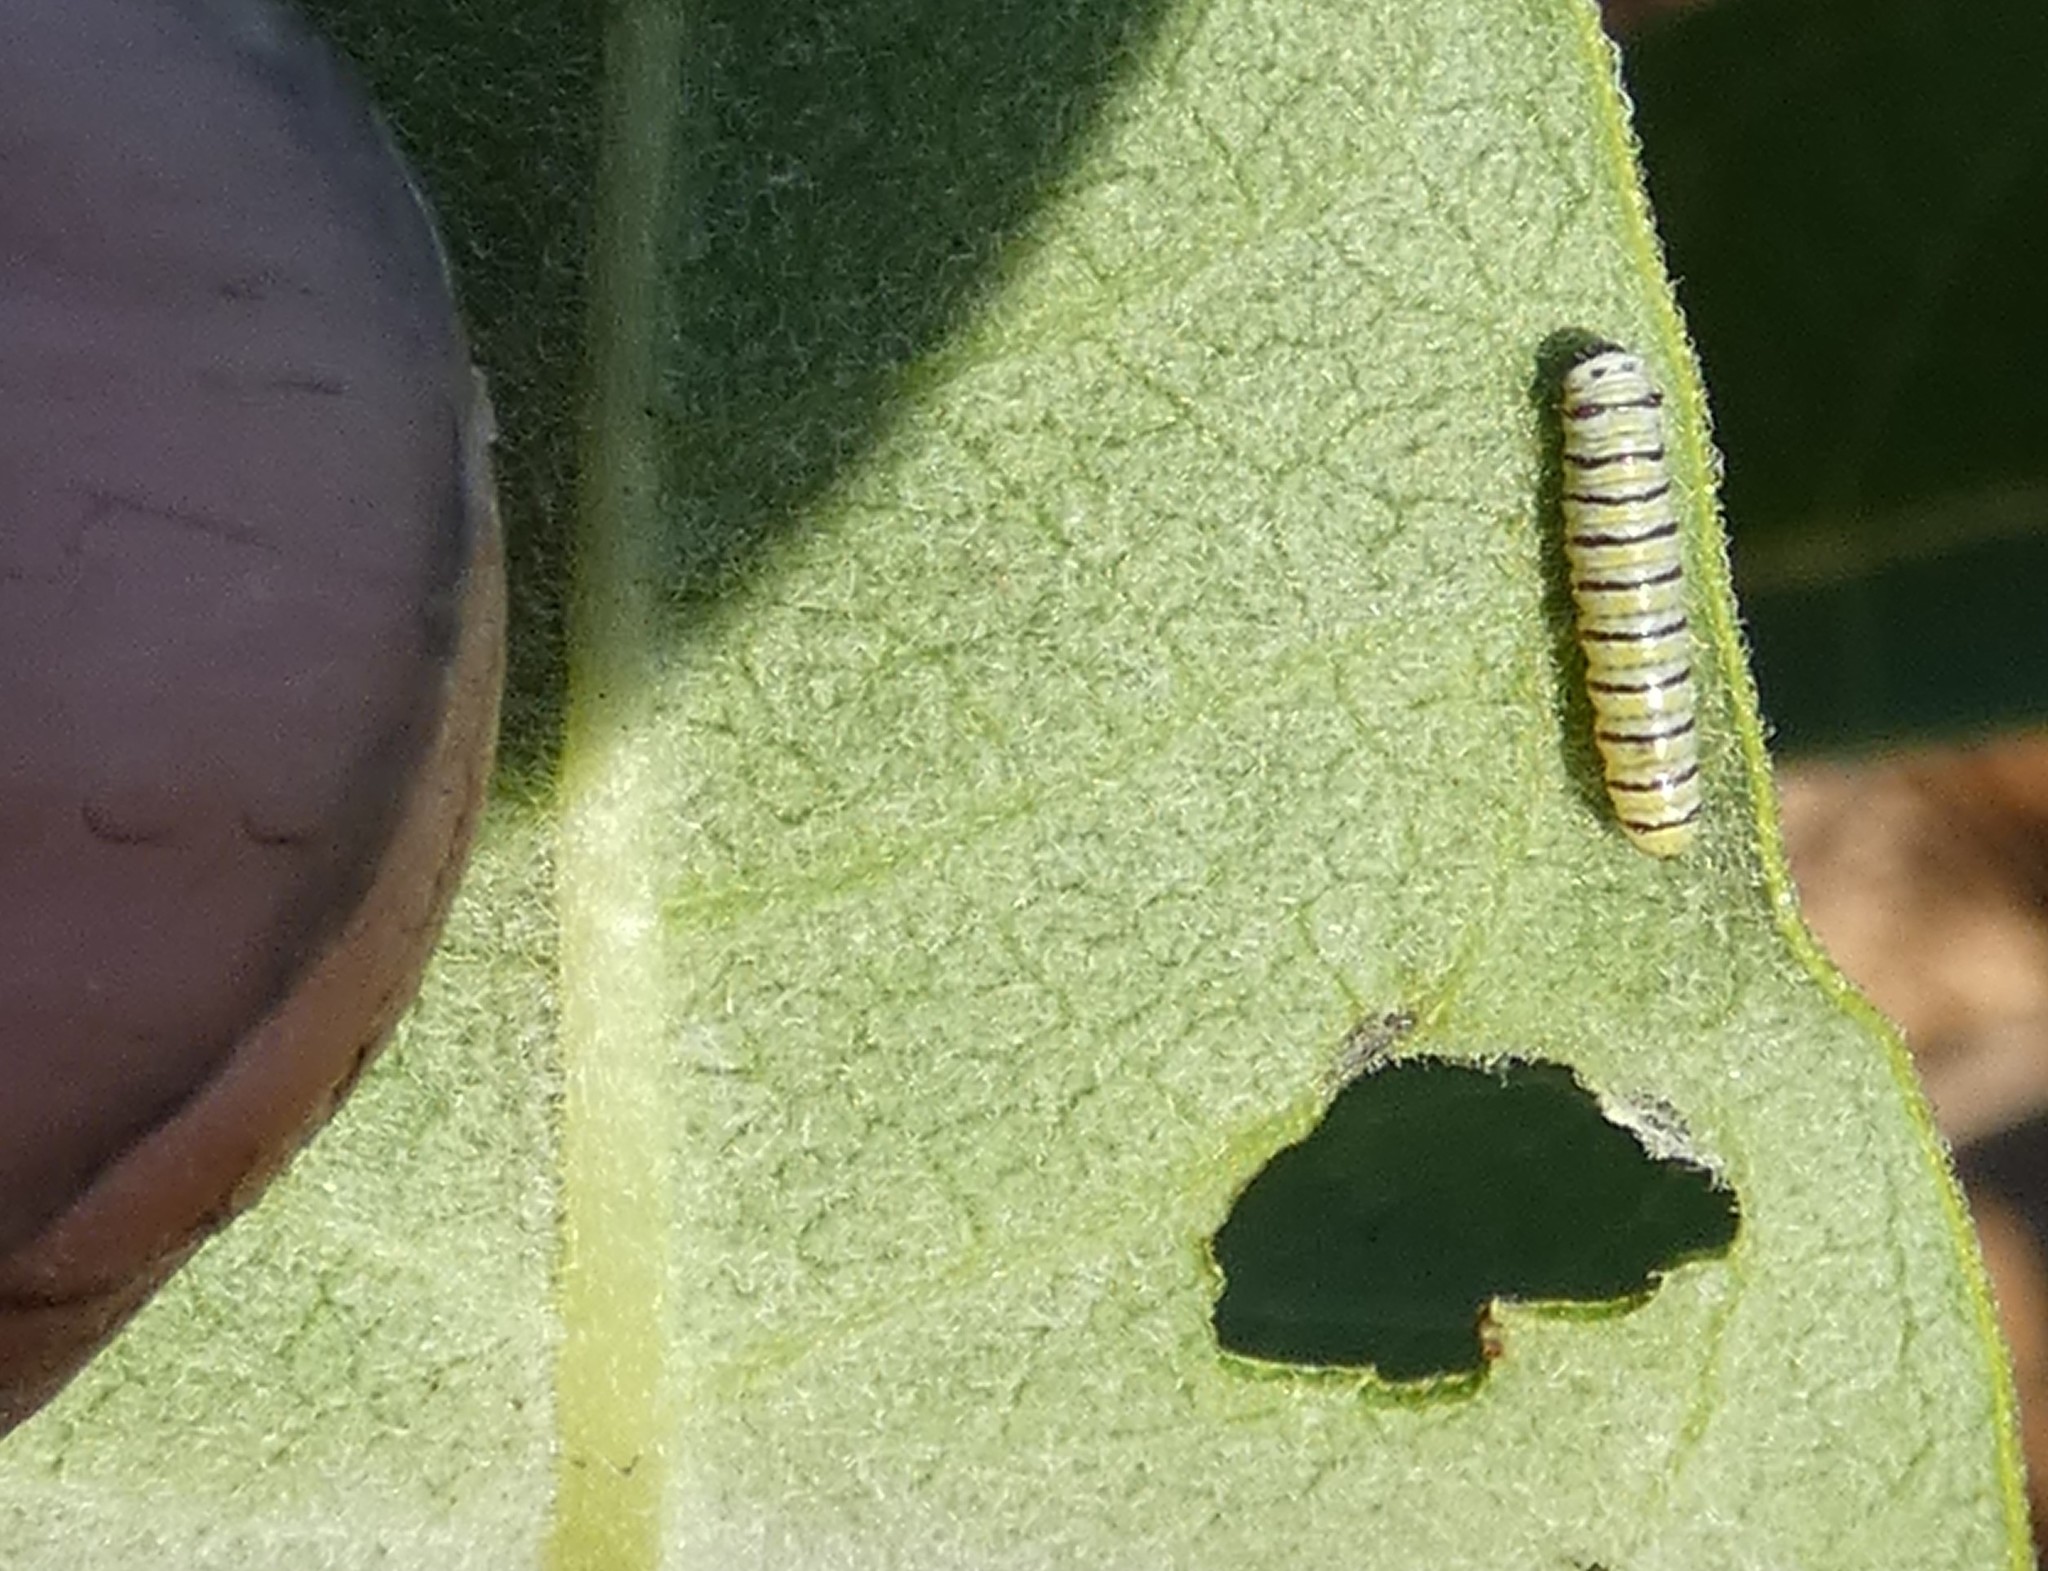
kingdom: Animalia
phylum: Arthropoda
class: Insecta
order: Lepidoptera
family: Nymphalidae
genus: Danaus
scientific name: Danaus plexippus
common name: Monarch
